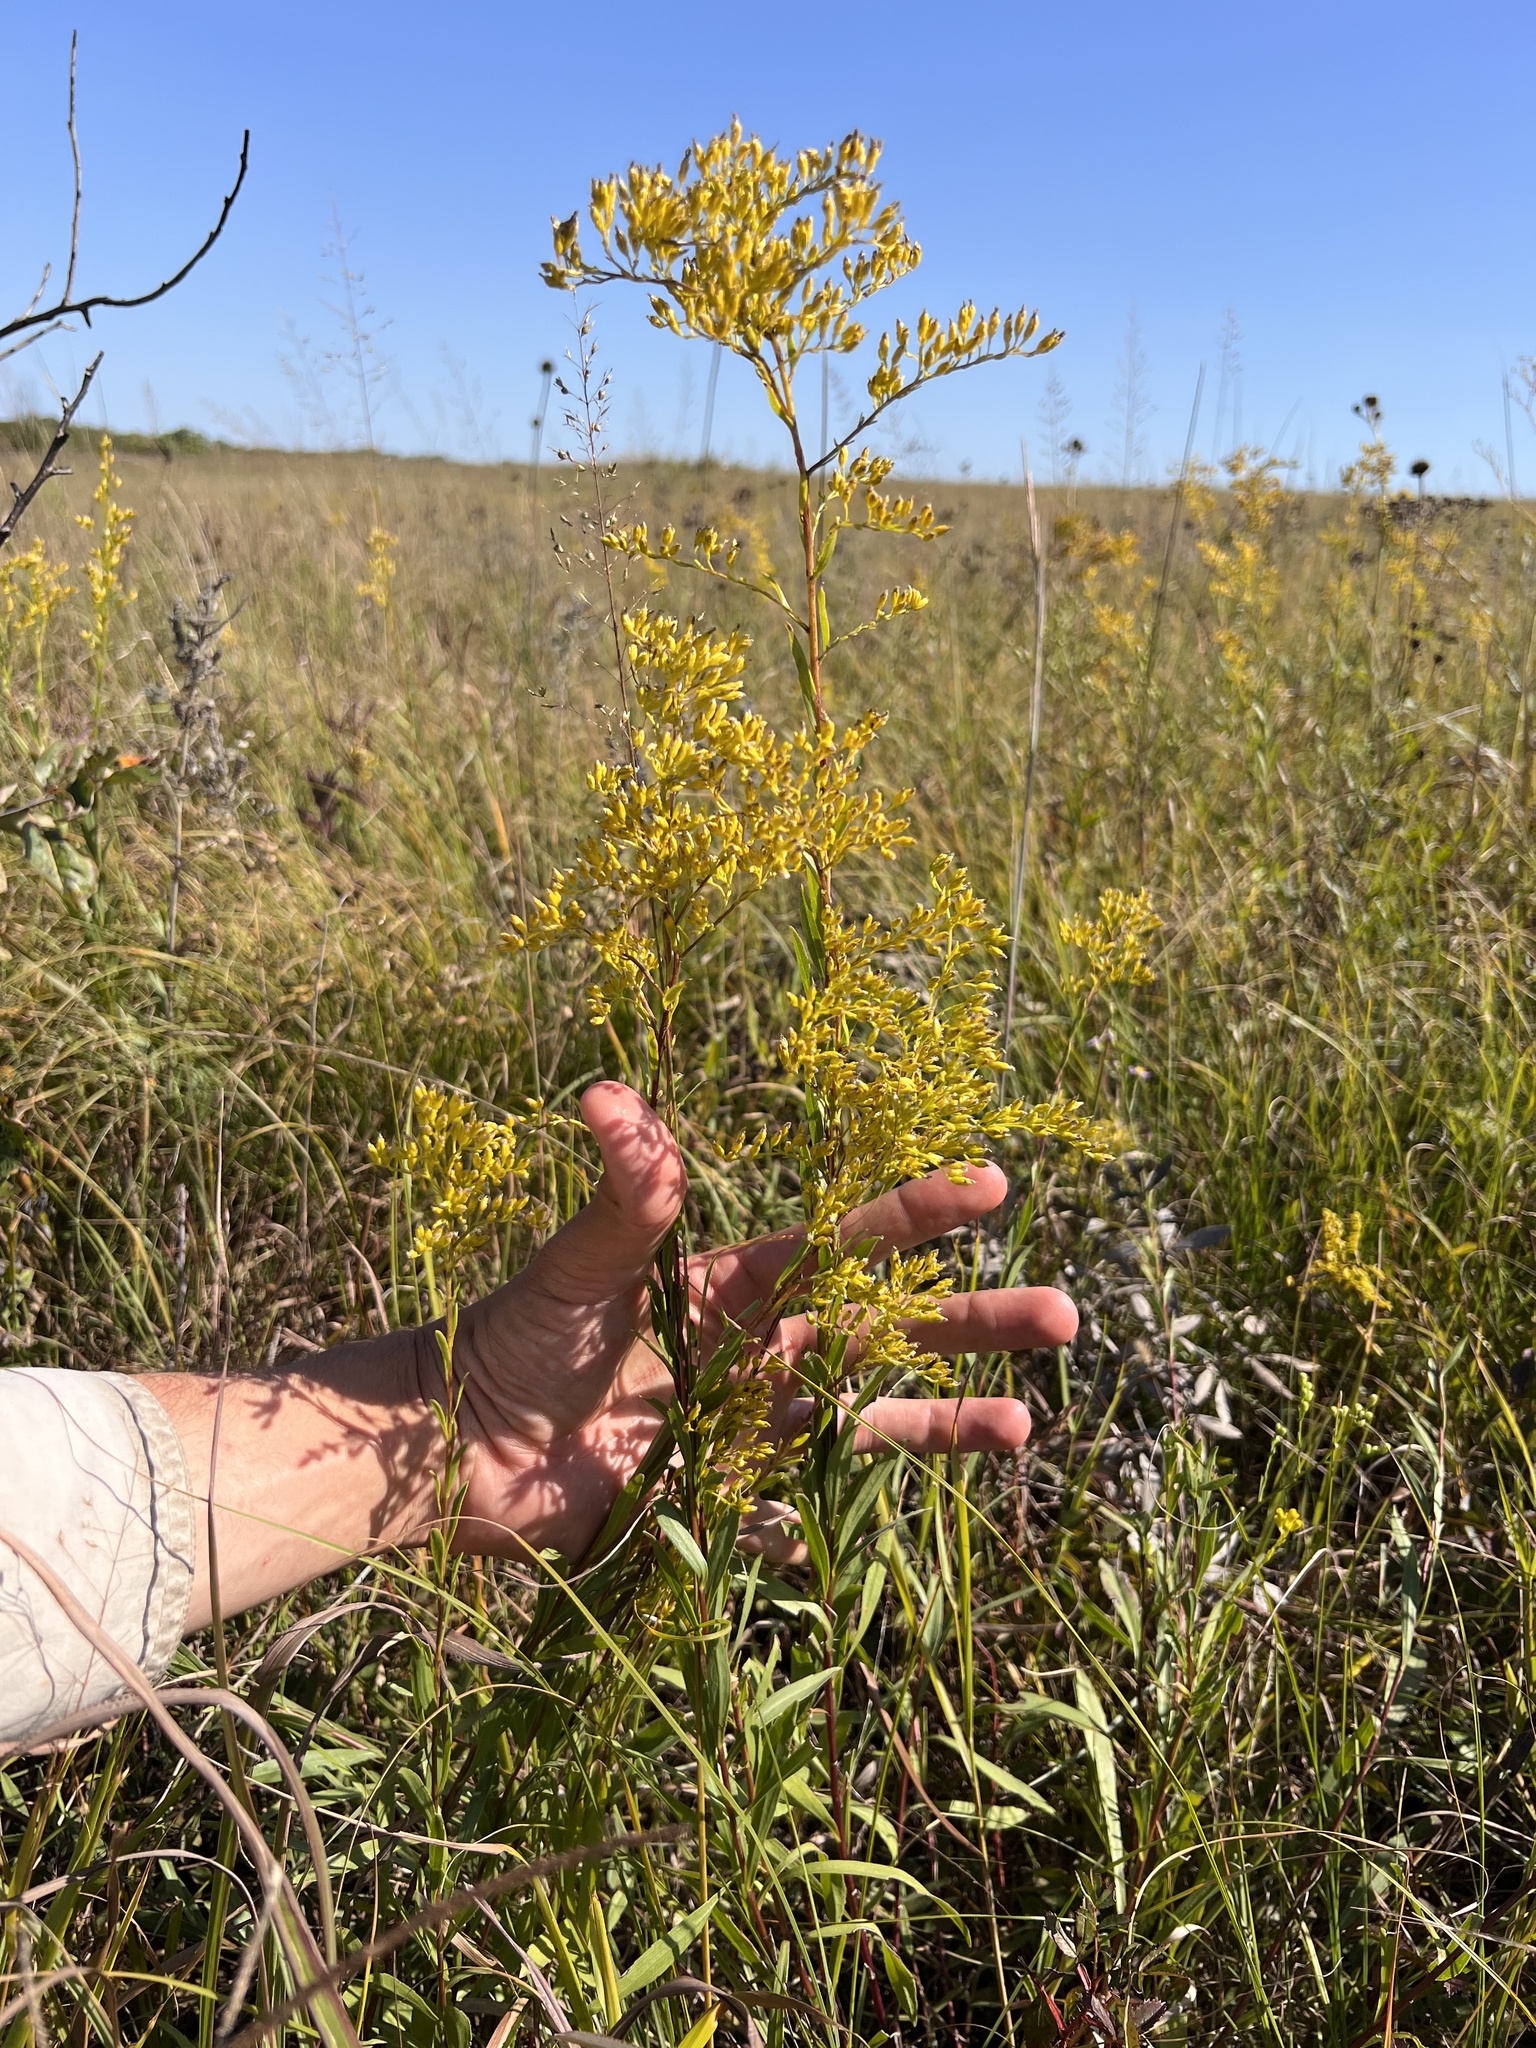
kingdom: Plantae
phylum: Tracheophyta
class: Magnoliopsida
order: Asterales
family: Asteraceae
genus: Solidago
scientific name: Solidago gattingeri
